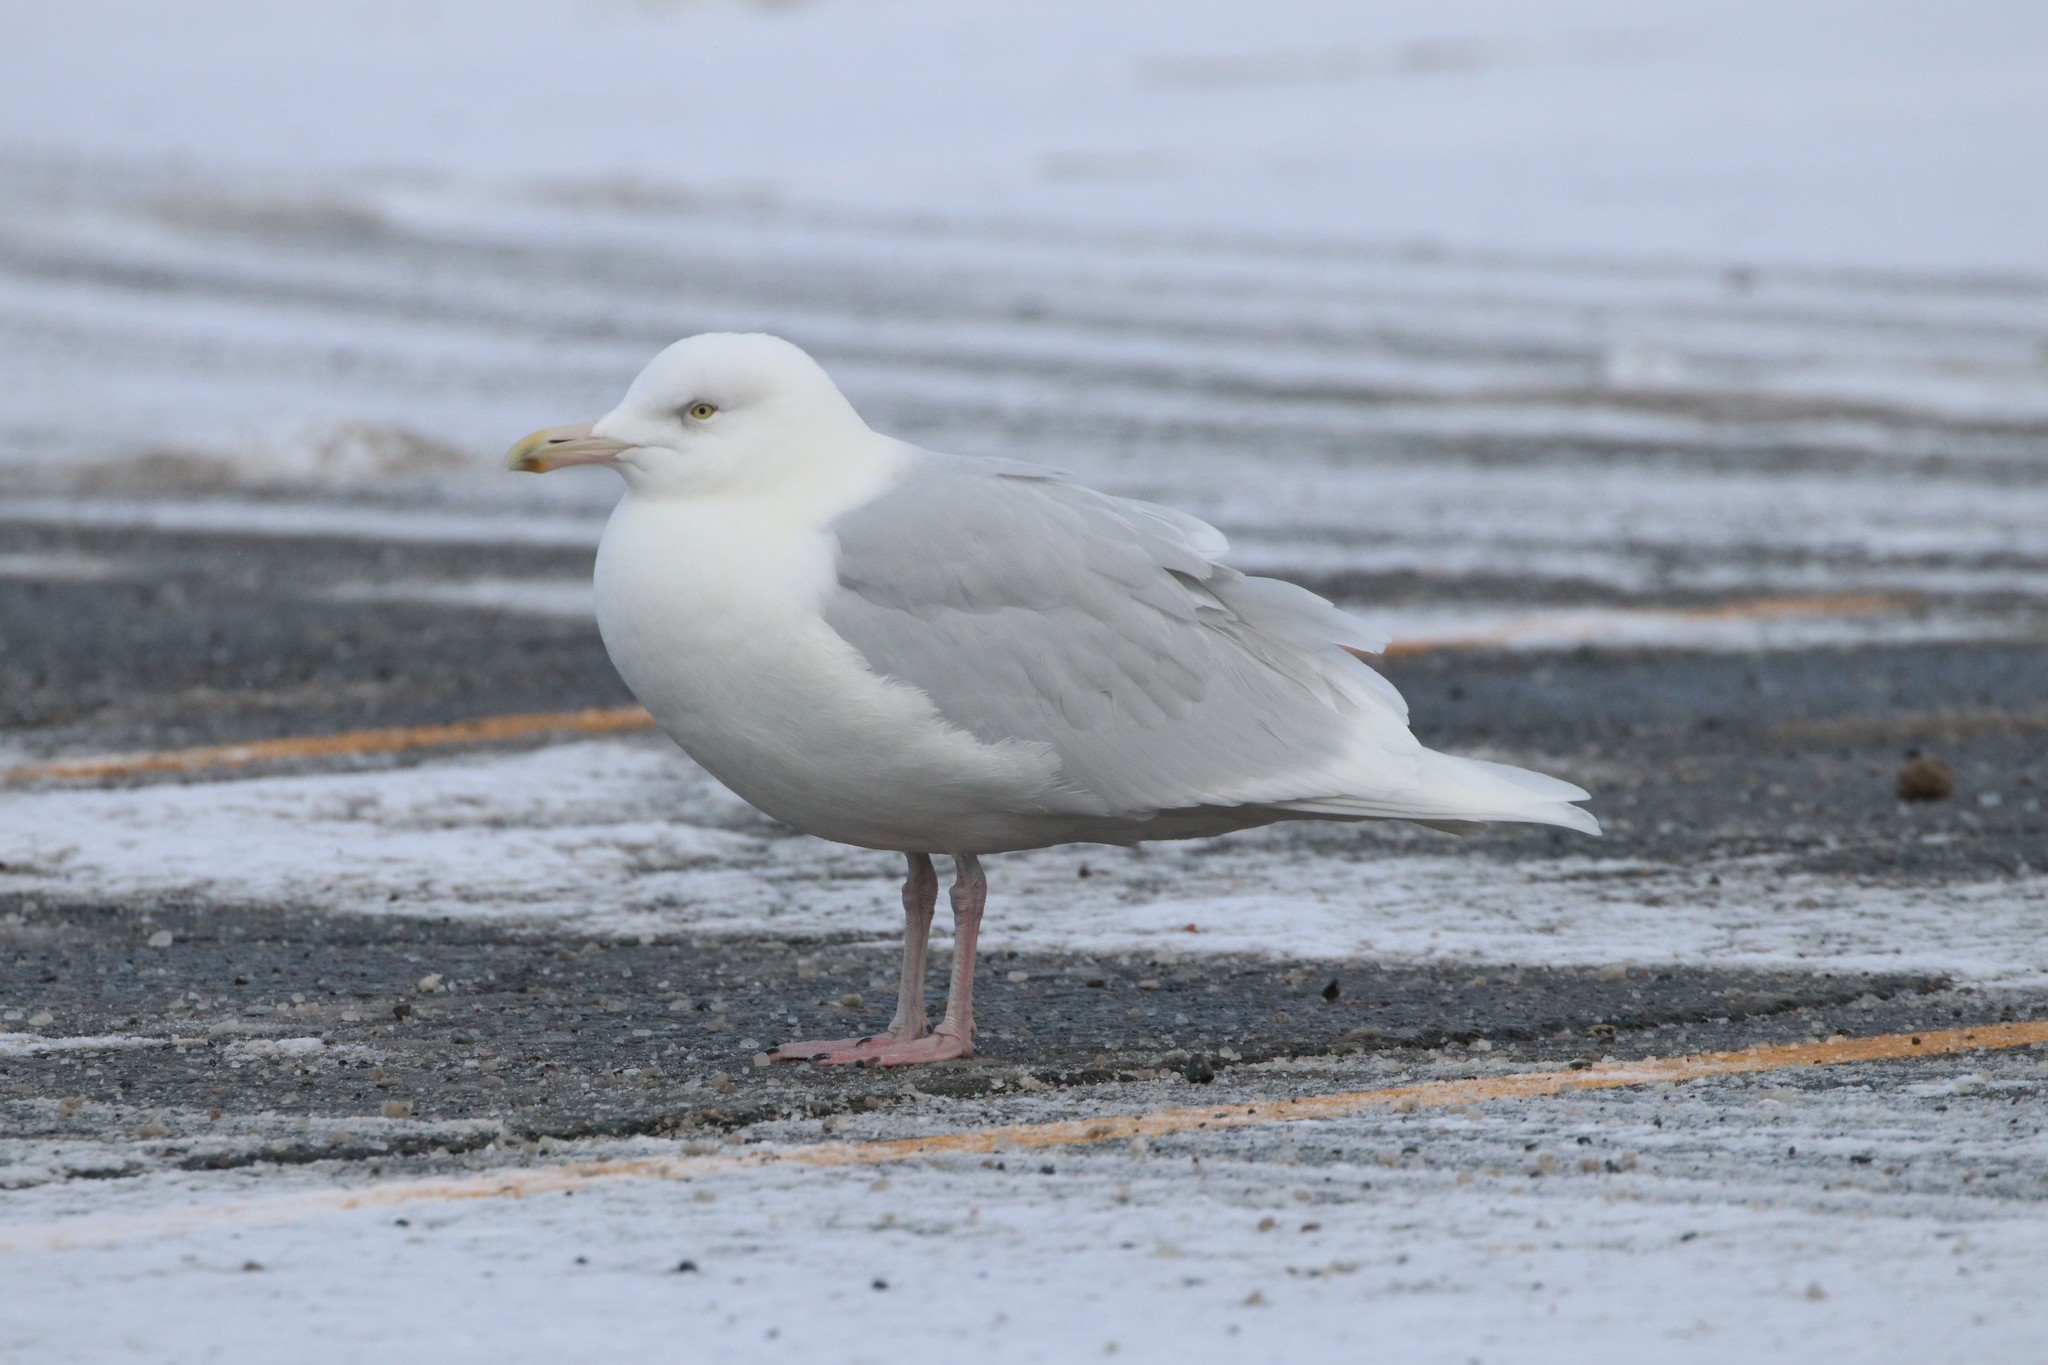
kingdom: Animalia
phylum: Chordata
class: Aves
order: Charadriiformes
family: Laridae
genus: Larus
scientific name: Larus glaucoides
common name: Iceland gull
